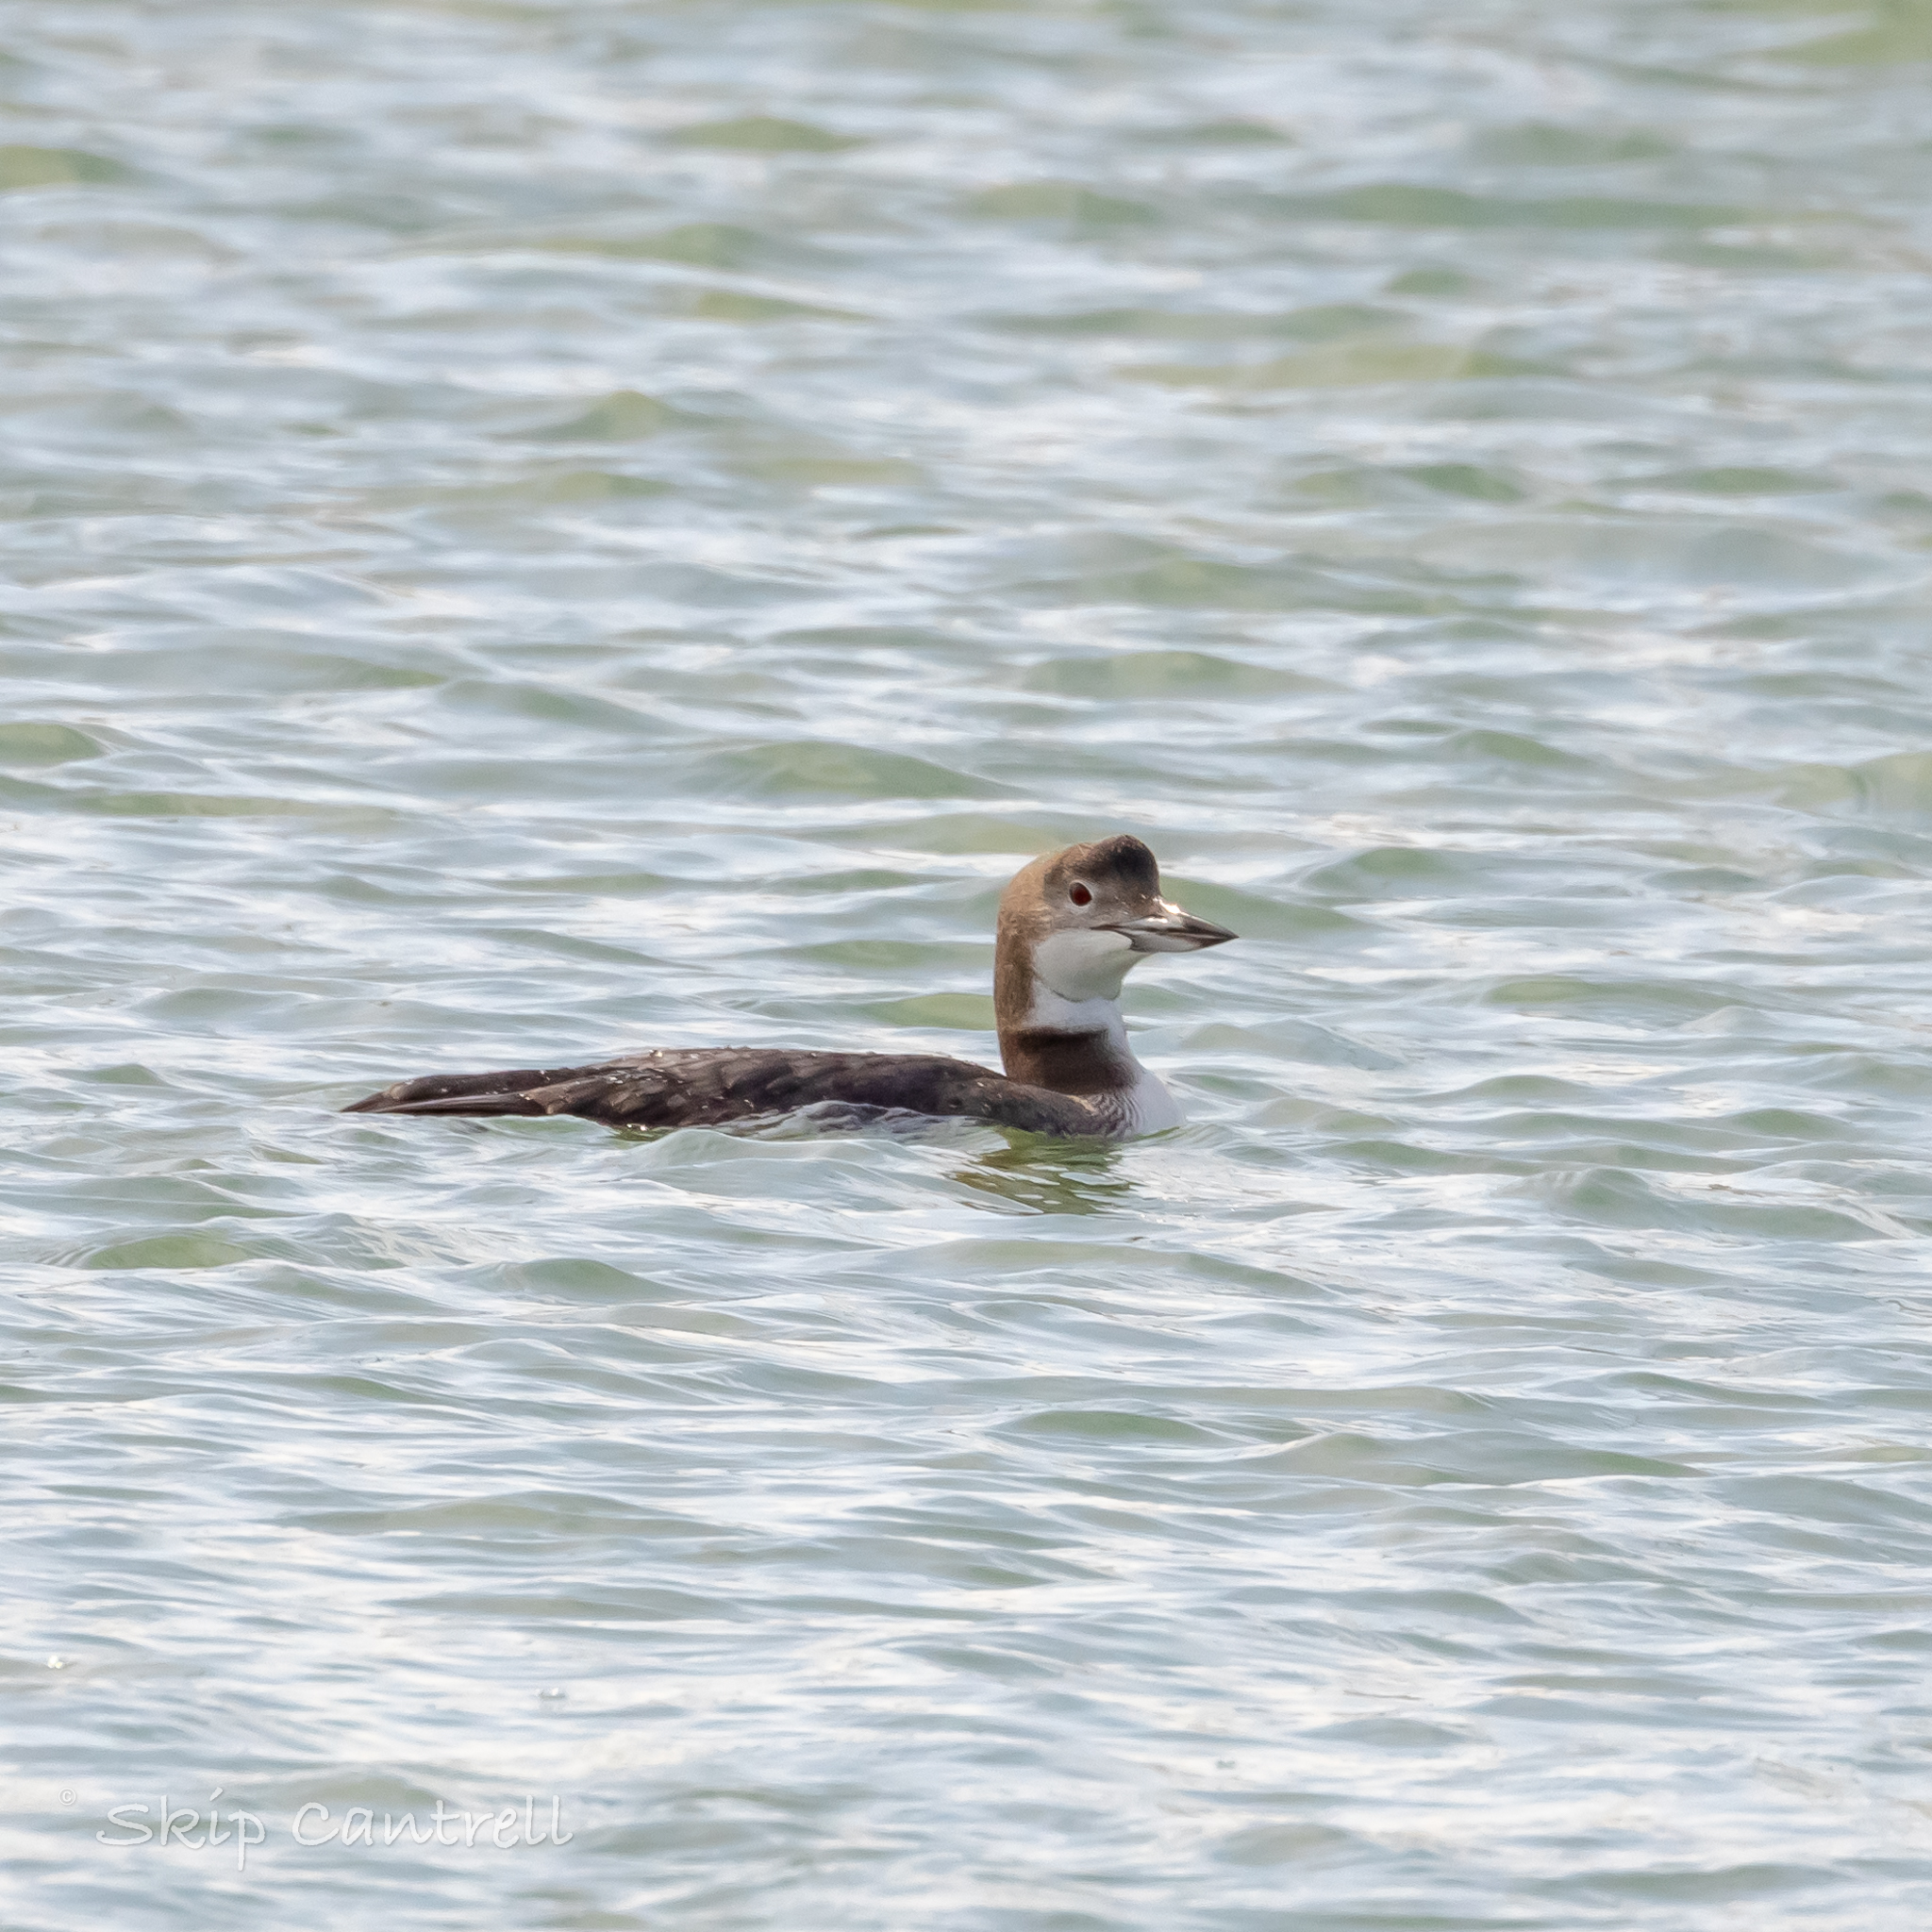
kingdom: Animalia
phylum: Chordata
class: Aves
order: Gaviiformes
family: Gaviidae
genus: Gavia
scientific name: Gavia immer
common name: Common loon
